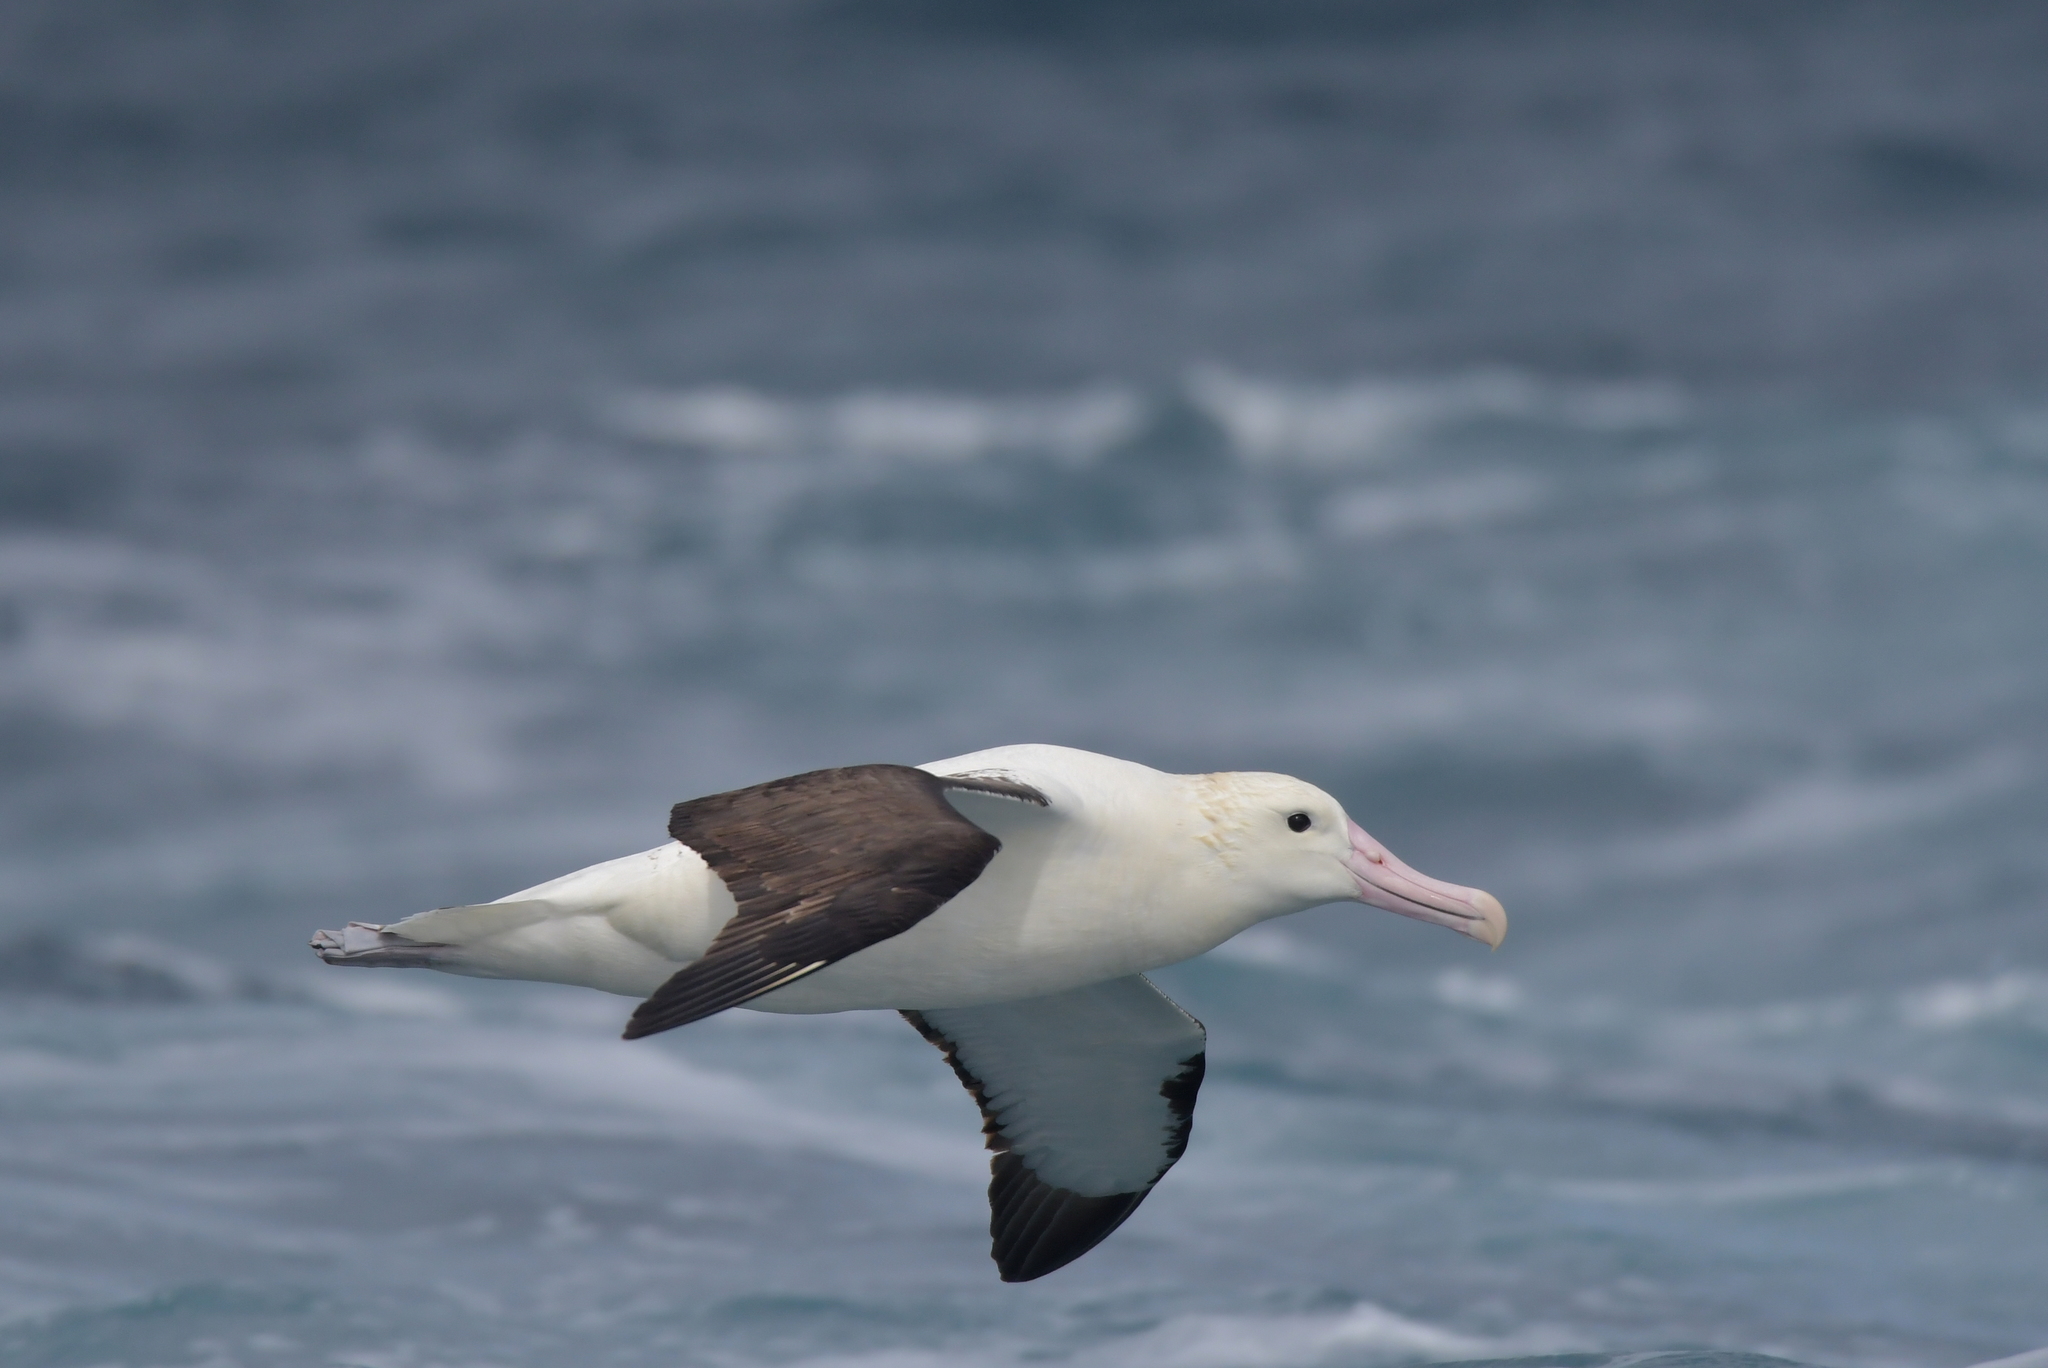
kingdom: Animalia
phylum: Chordata
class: Aves
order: Procellariiformes
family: Diomedeidae
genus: Diomedea
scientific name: Diomedea sanfordi
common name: Northern royal albatross
